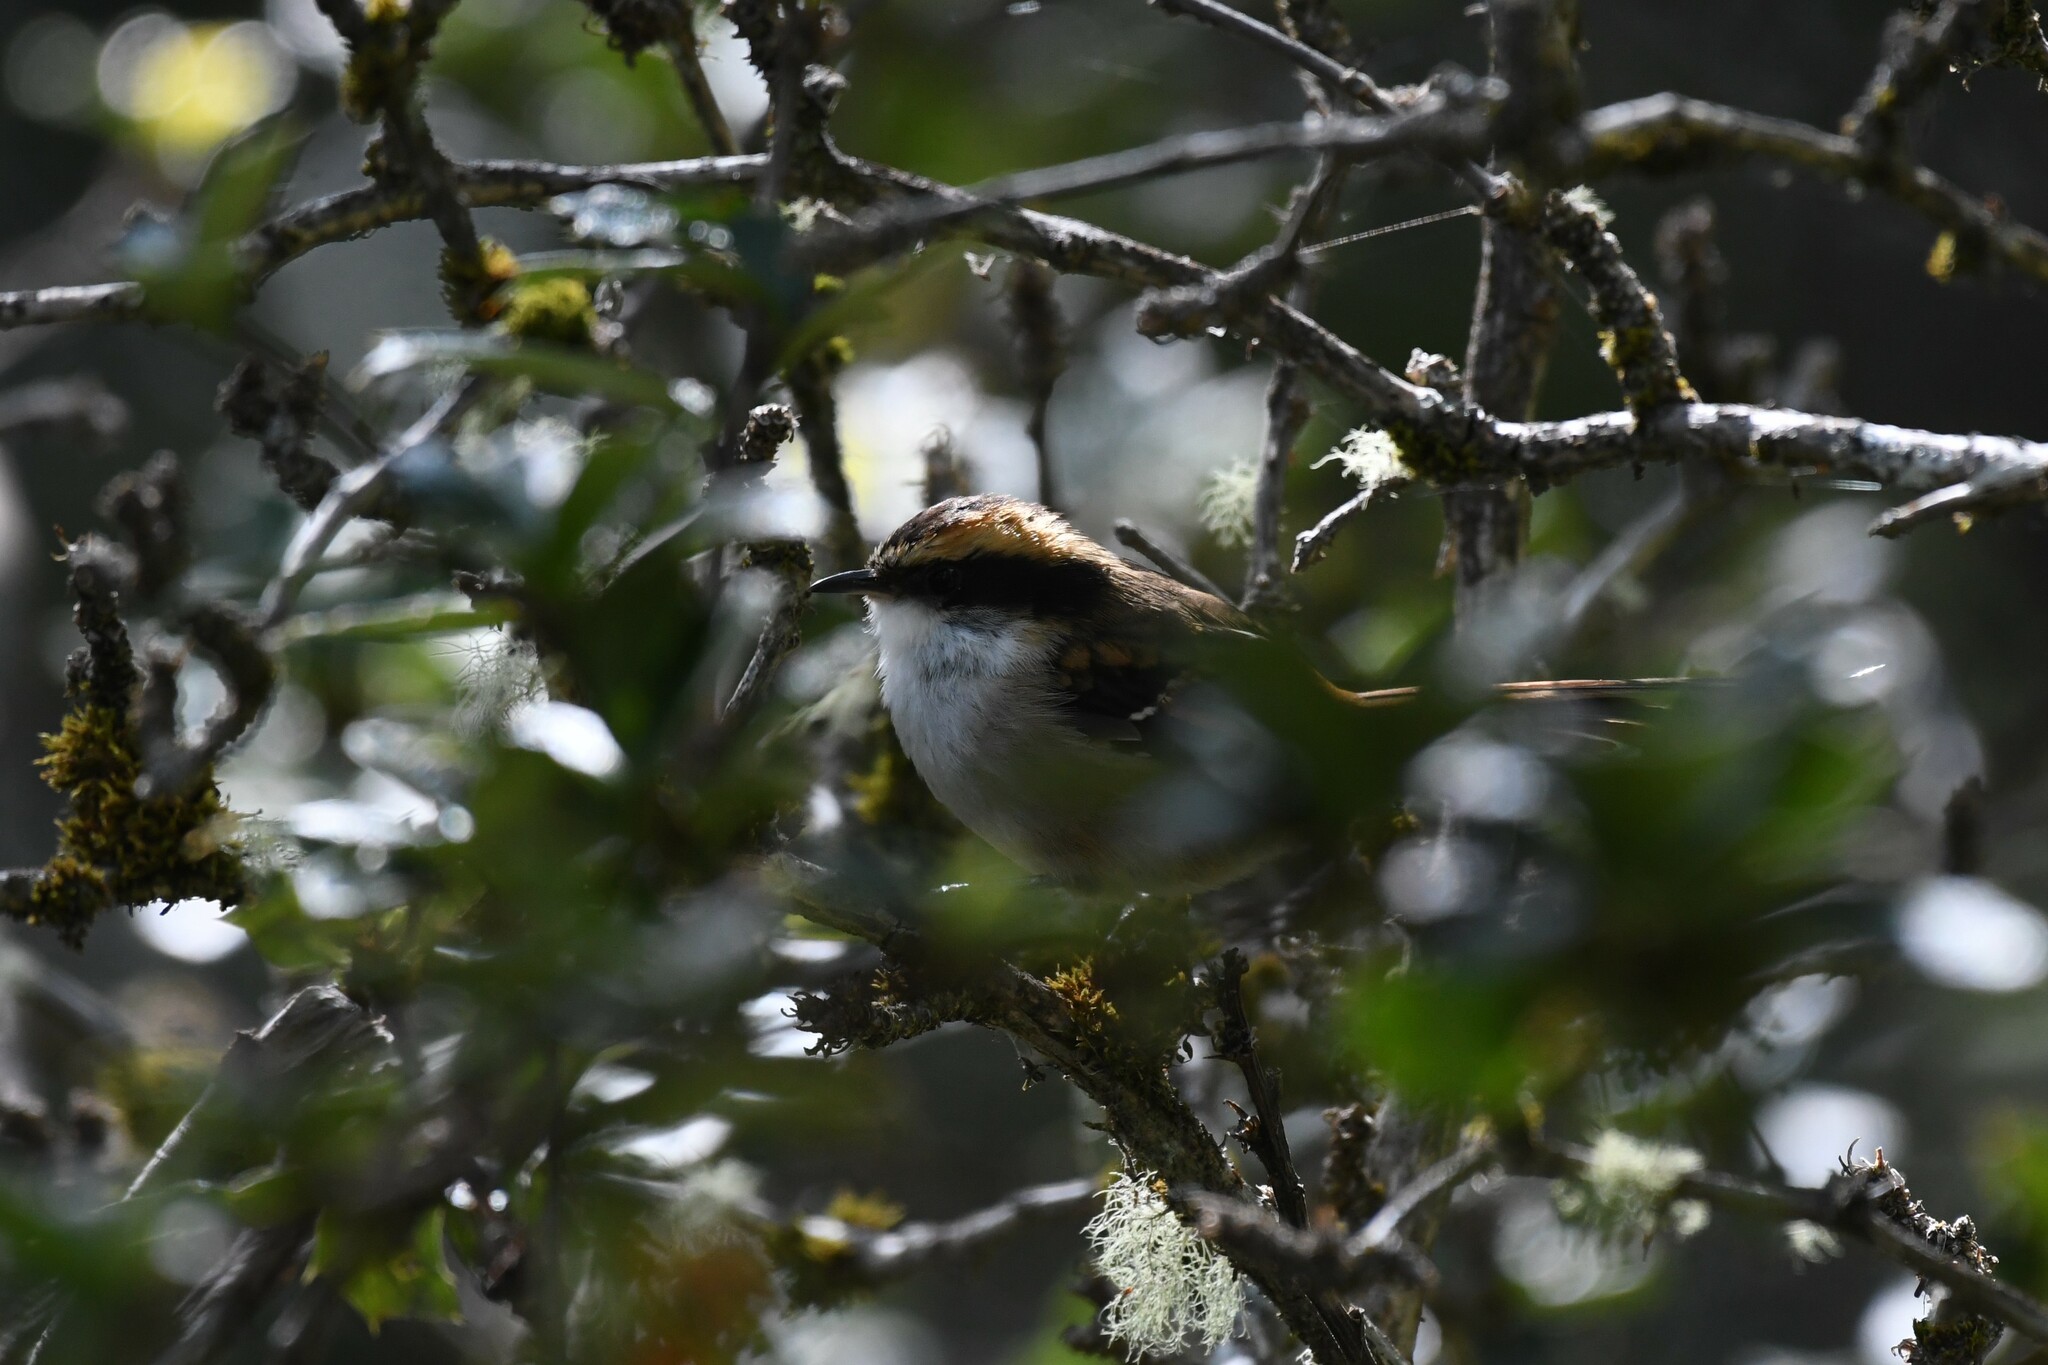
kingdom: Animalia
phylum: Chordata
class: Aves
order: Passeriformes
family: Furnariidae
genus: Aphrastura
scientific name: Aphrastura spinicauda
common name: Thorn-tailed rayadito
